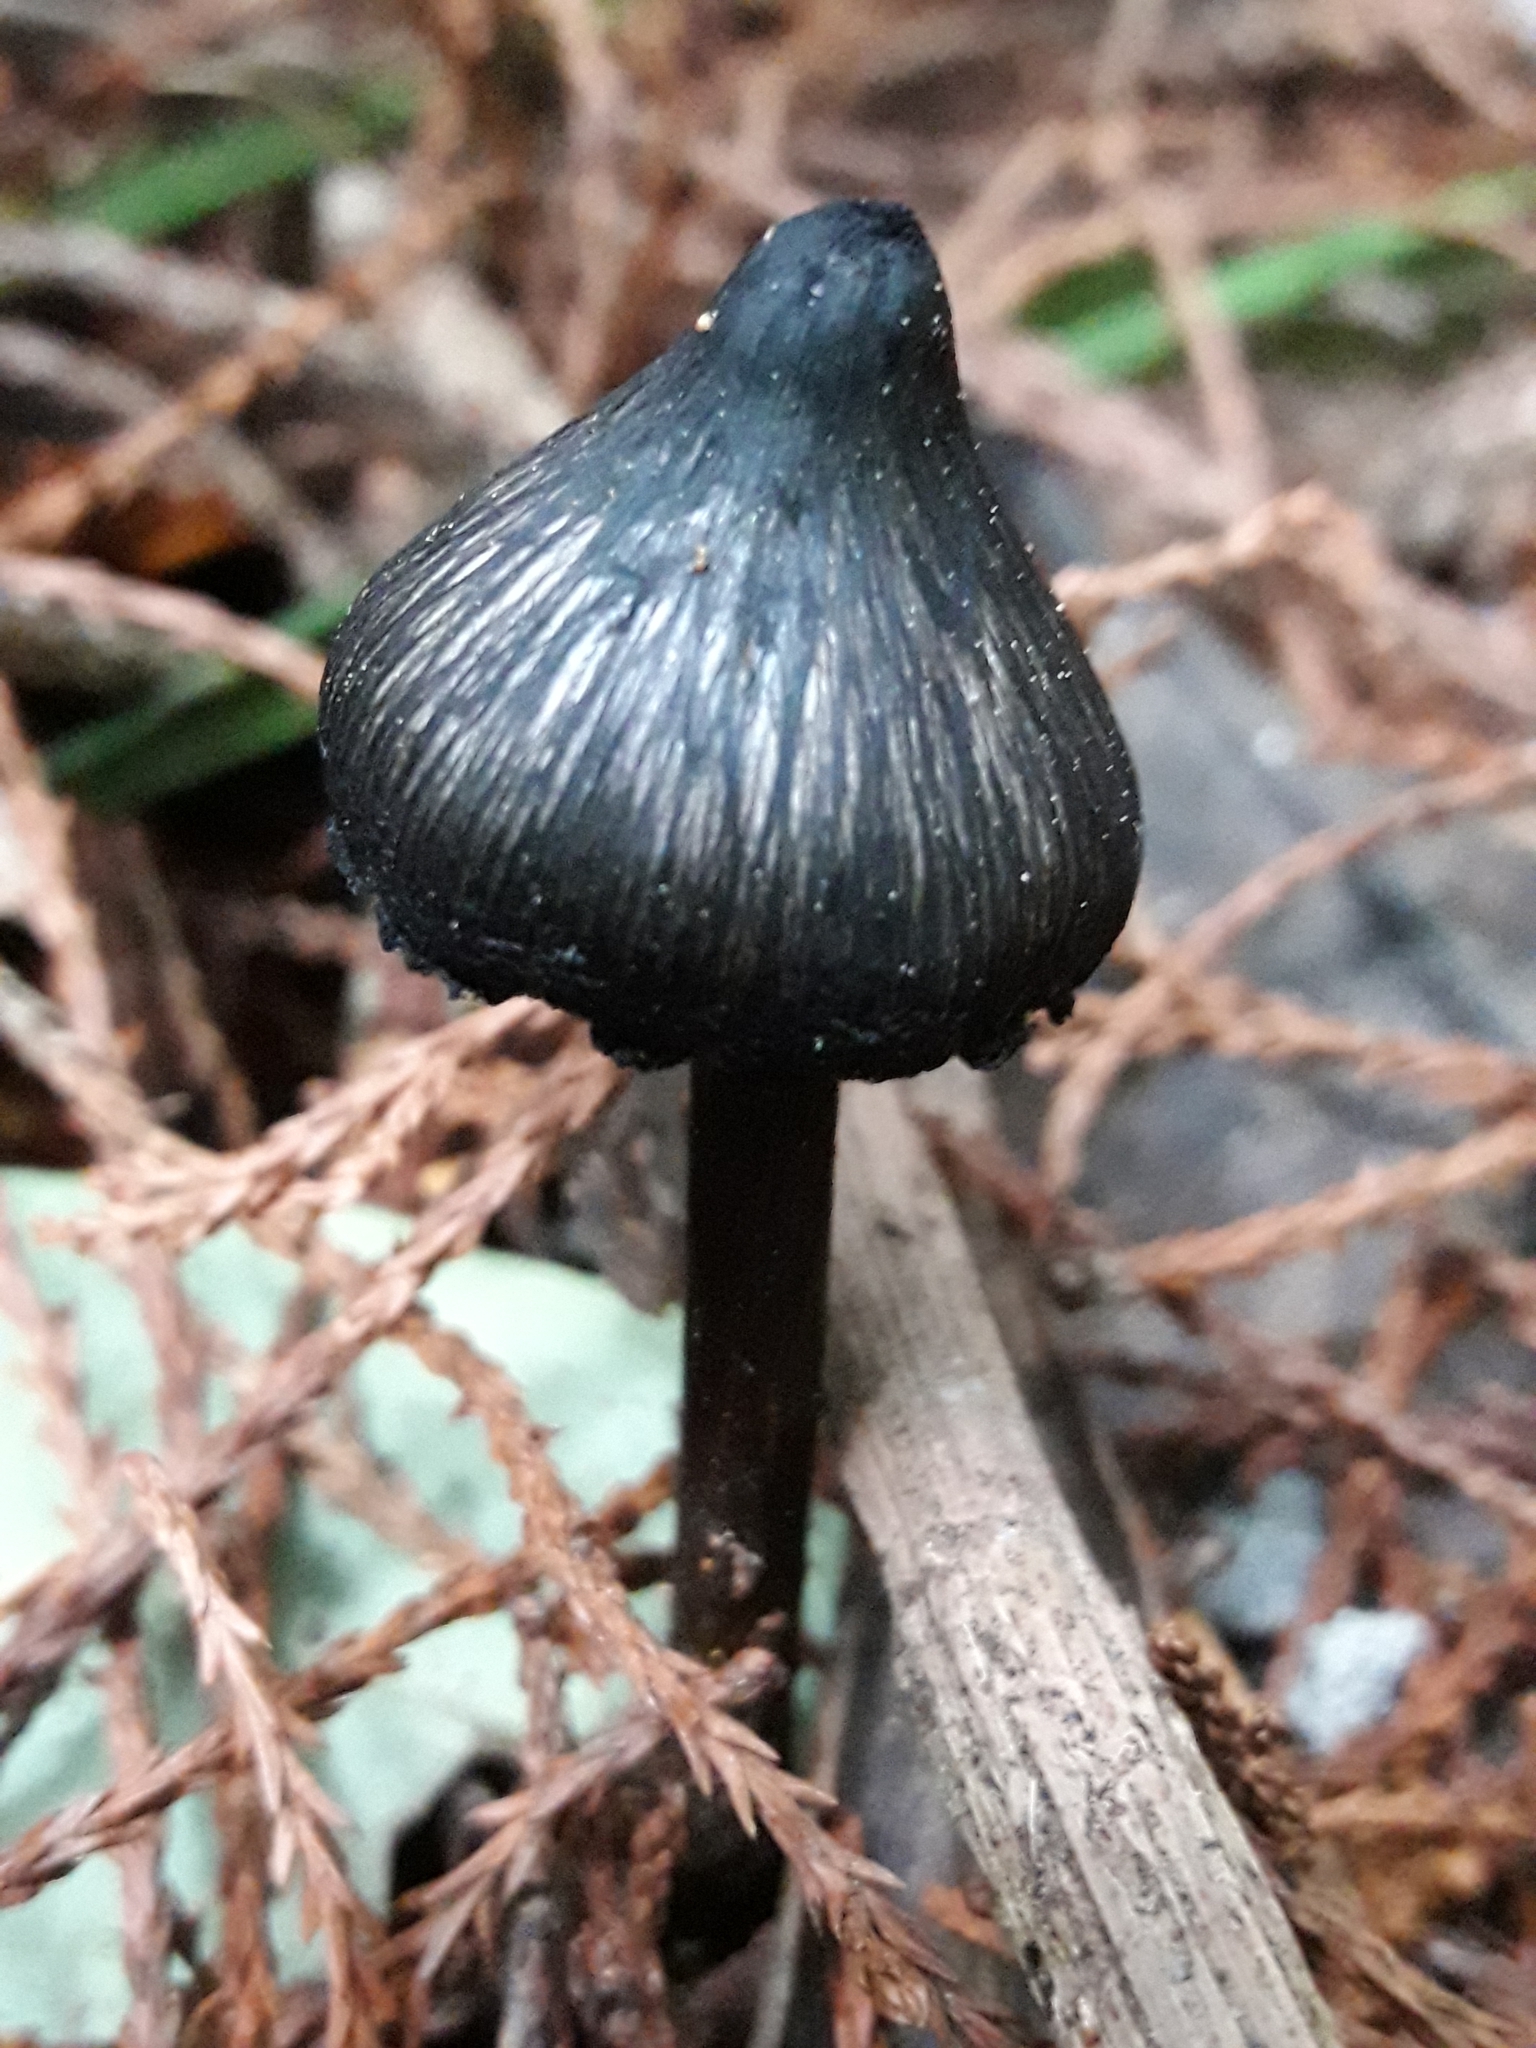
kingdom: Fungi
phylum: Basidiomycota
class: Agaricomycetes
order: Agaricales
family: Hygrophoraceae
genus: Hygrocybe
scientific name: Hygrocybe astatogala
